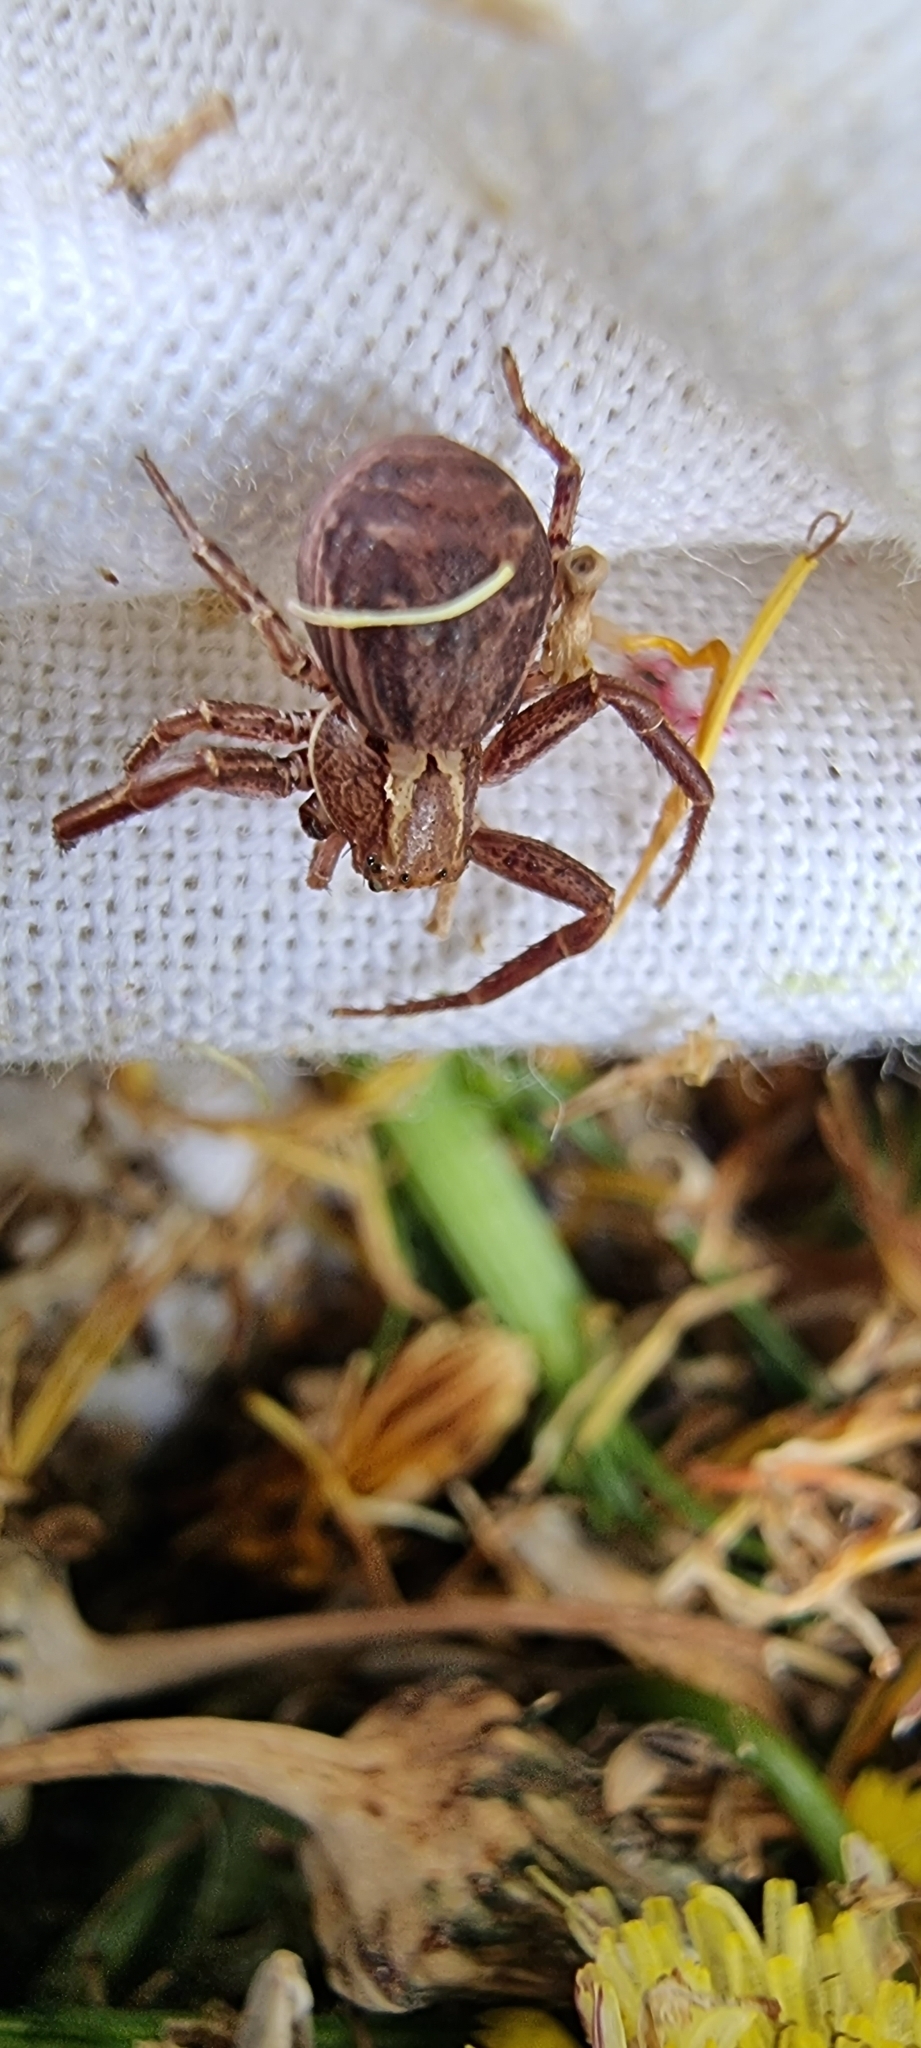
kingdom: Animalia
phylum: Arthropoda
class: Arachnida
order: Araneae
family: Thomisidae
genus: Xysticus
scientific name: Xysticus
